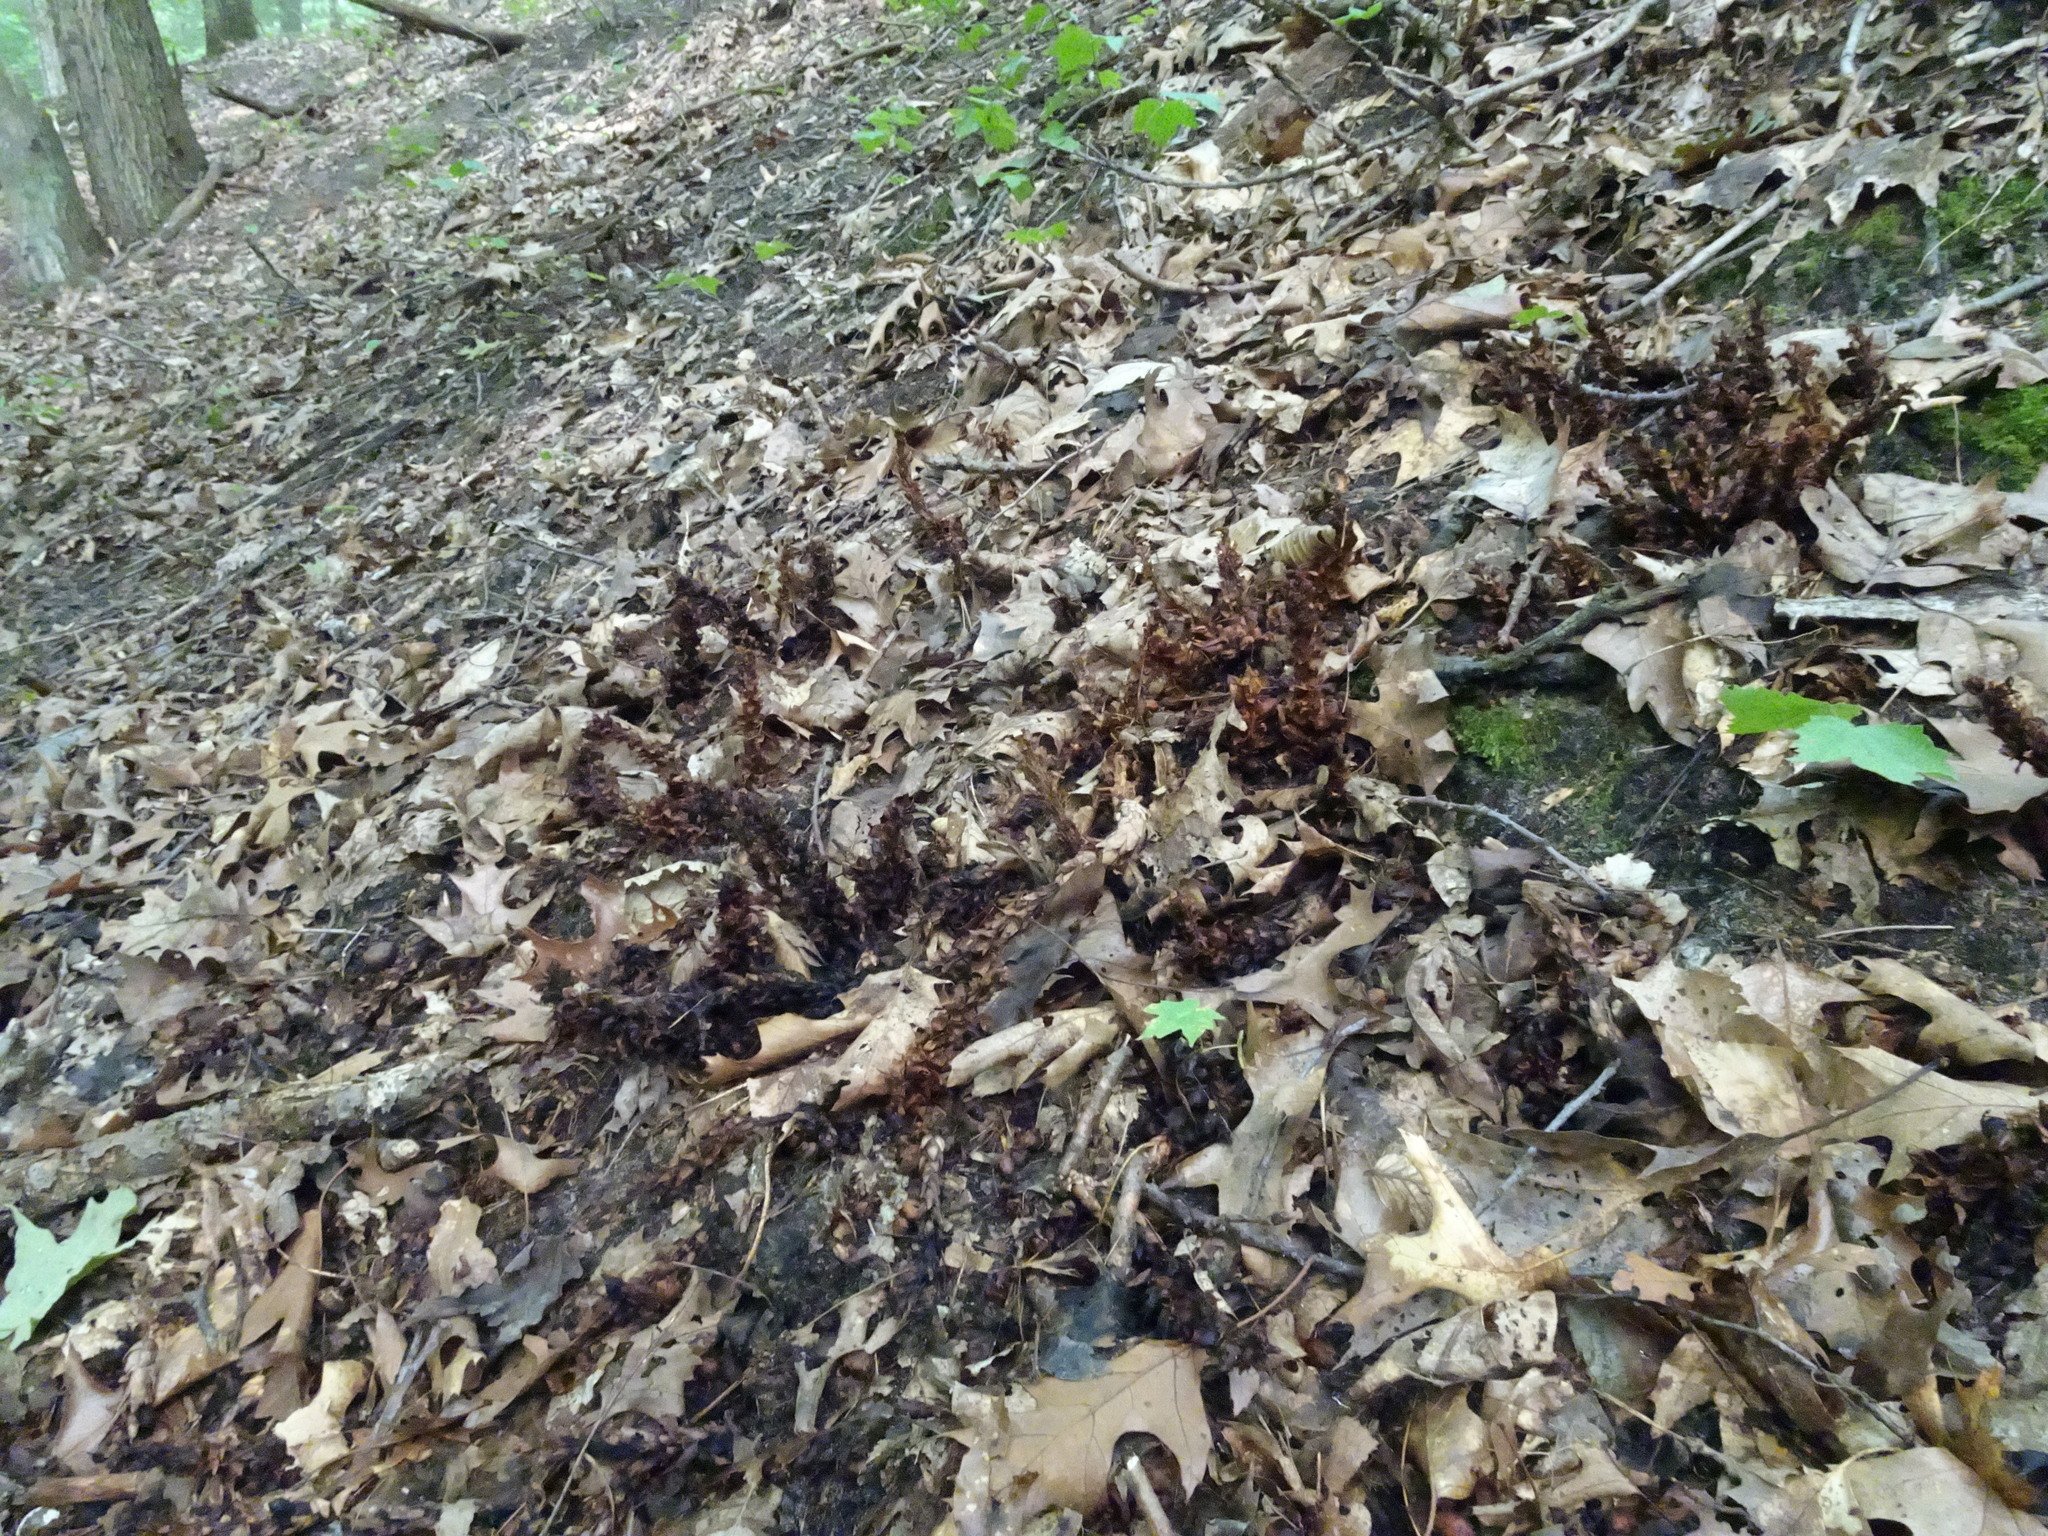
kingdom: Plantae
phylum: Tracheophyta
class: Magnoliopsida
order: Lamiales
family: Orobanchaceae
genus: Conopholis
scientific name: Conopholis americana
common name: American cancer-root
